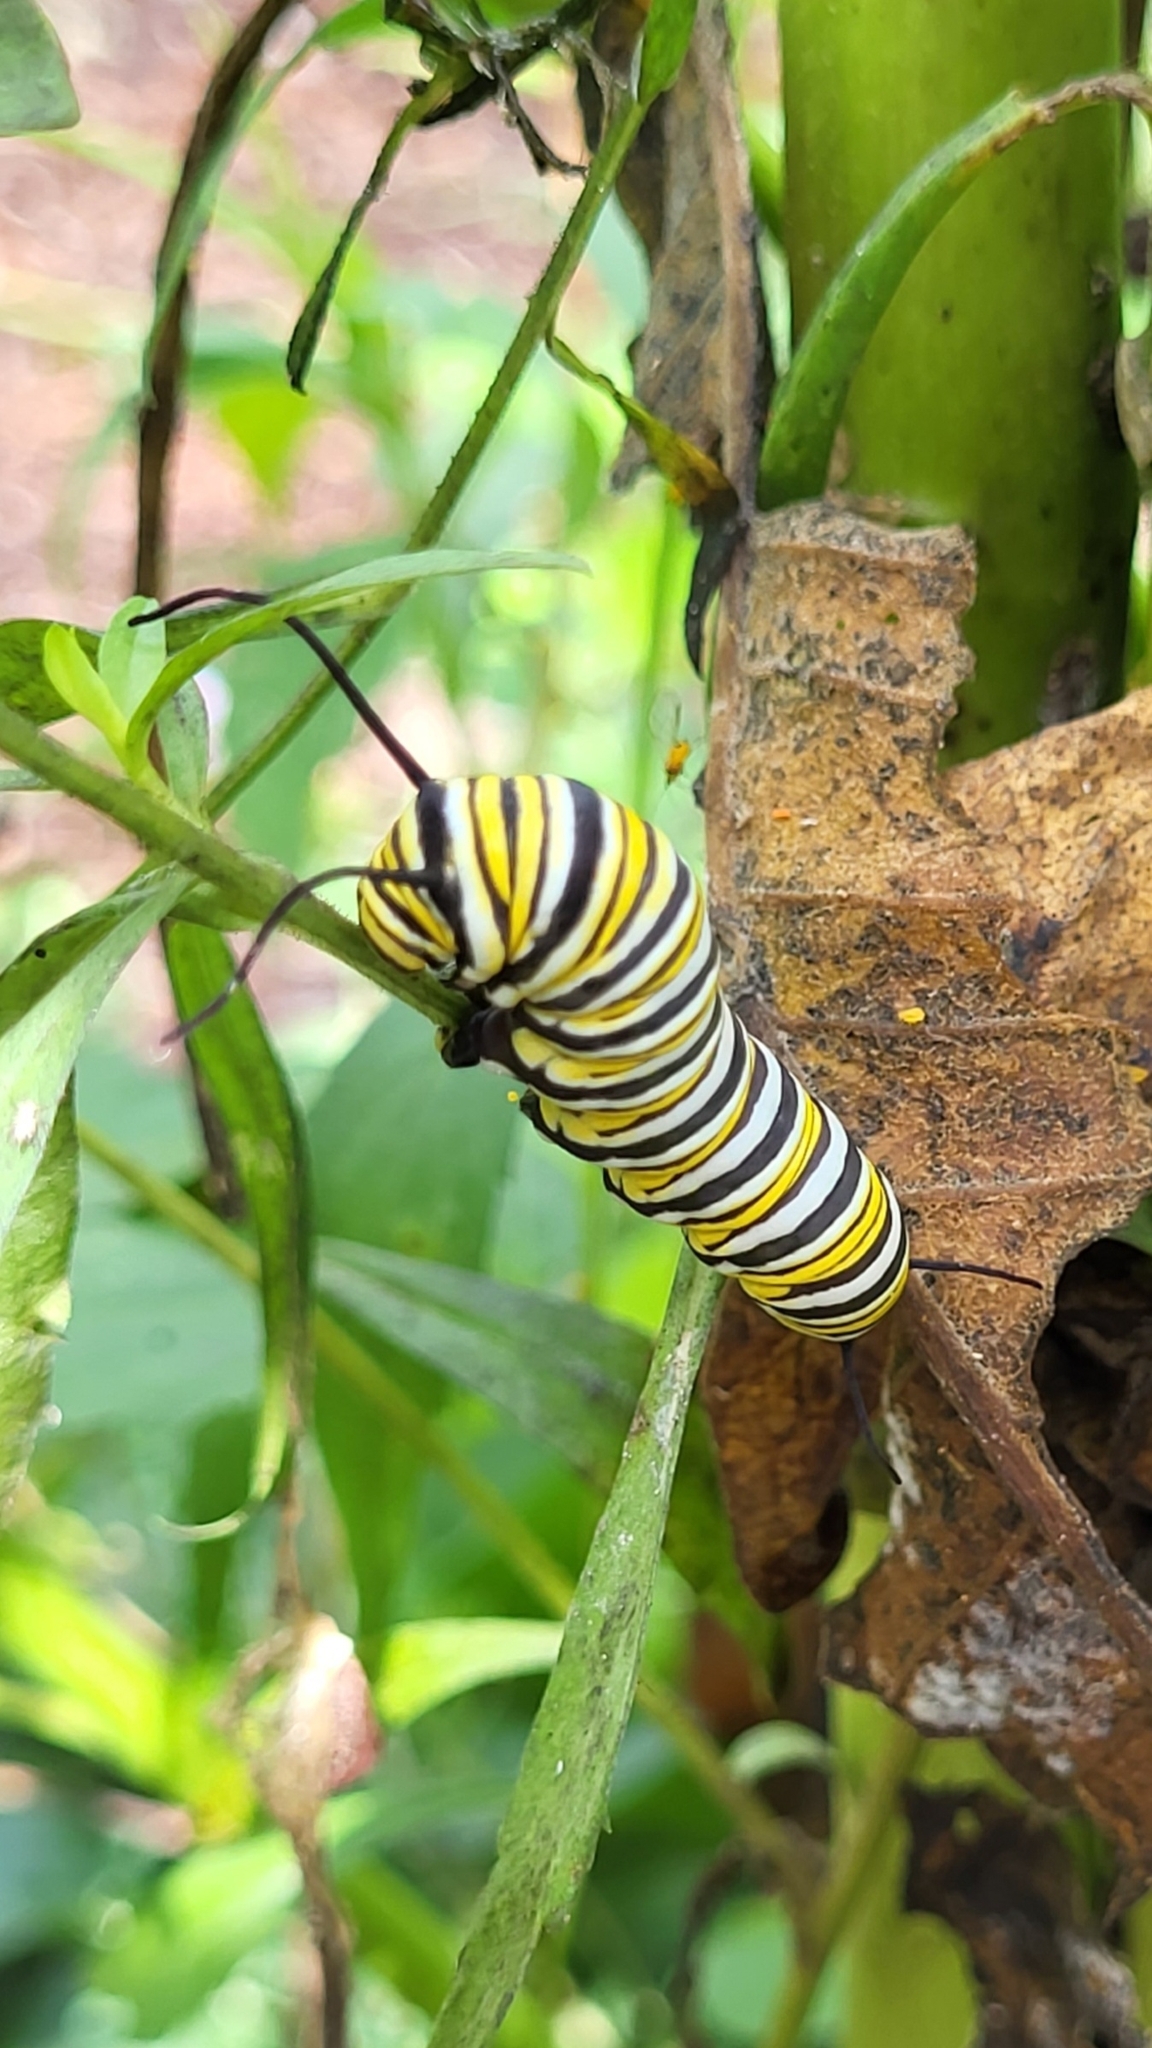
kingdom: Animalia
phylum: Arthropoda
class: Insecta
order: Lepidoptera
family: Nymphalidae
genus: Danaus
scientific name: Danaus plexippus
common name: Monarch
